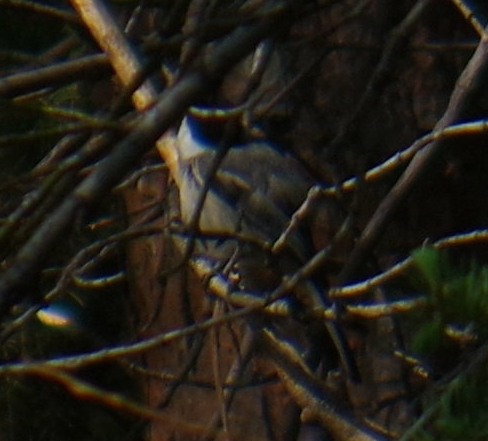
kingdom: Animalia
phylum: Chordata
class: Aves
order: Passeriformes
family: Paridae
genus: Poecile
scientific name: Poecile atricapillus
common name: Black-capped chickadee
